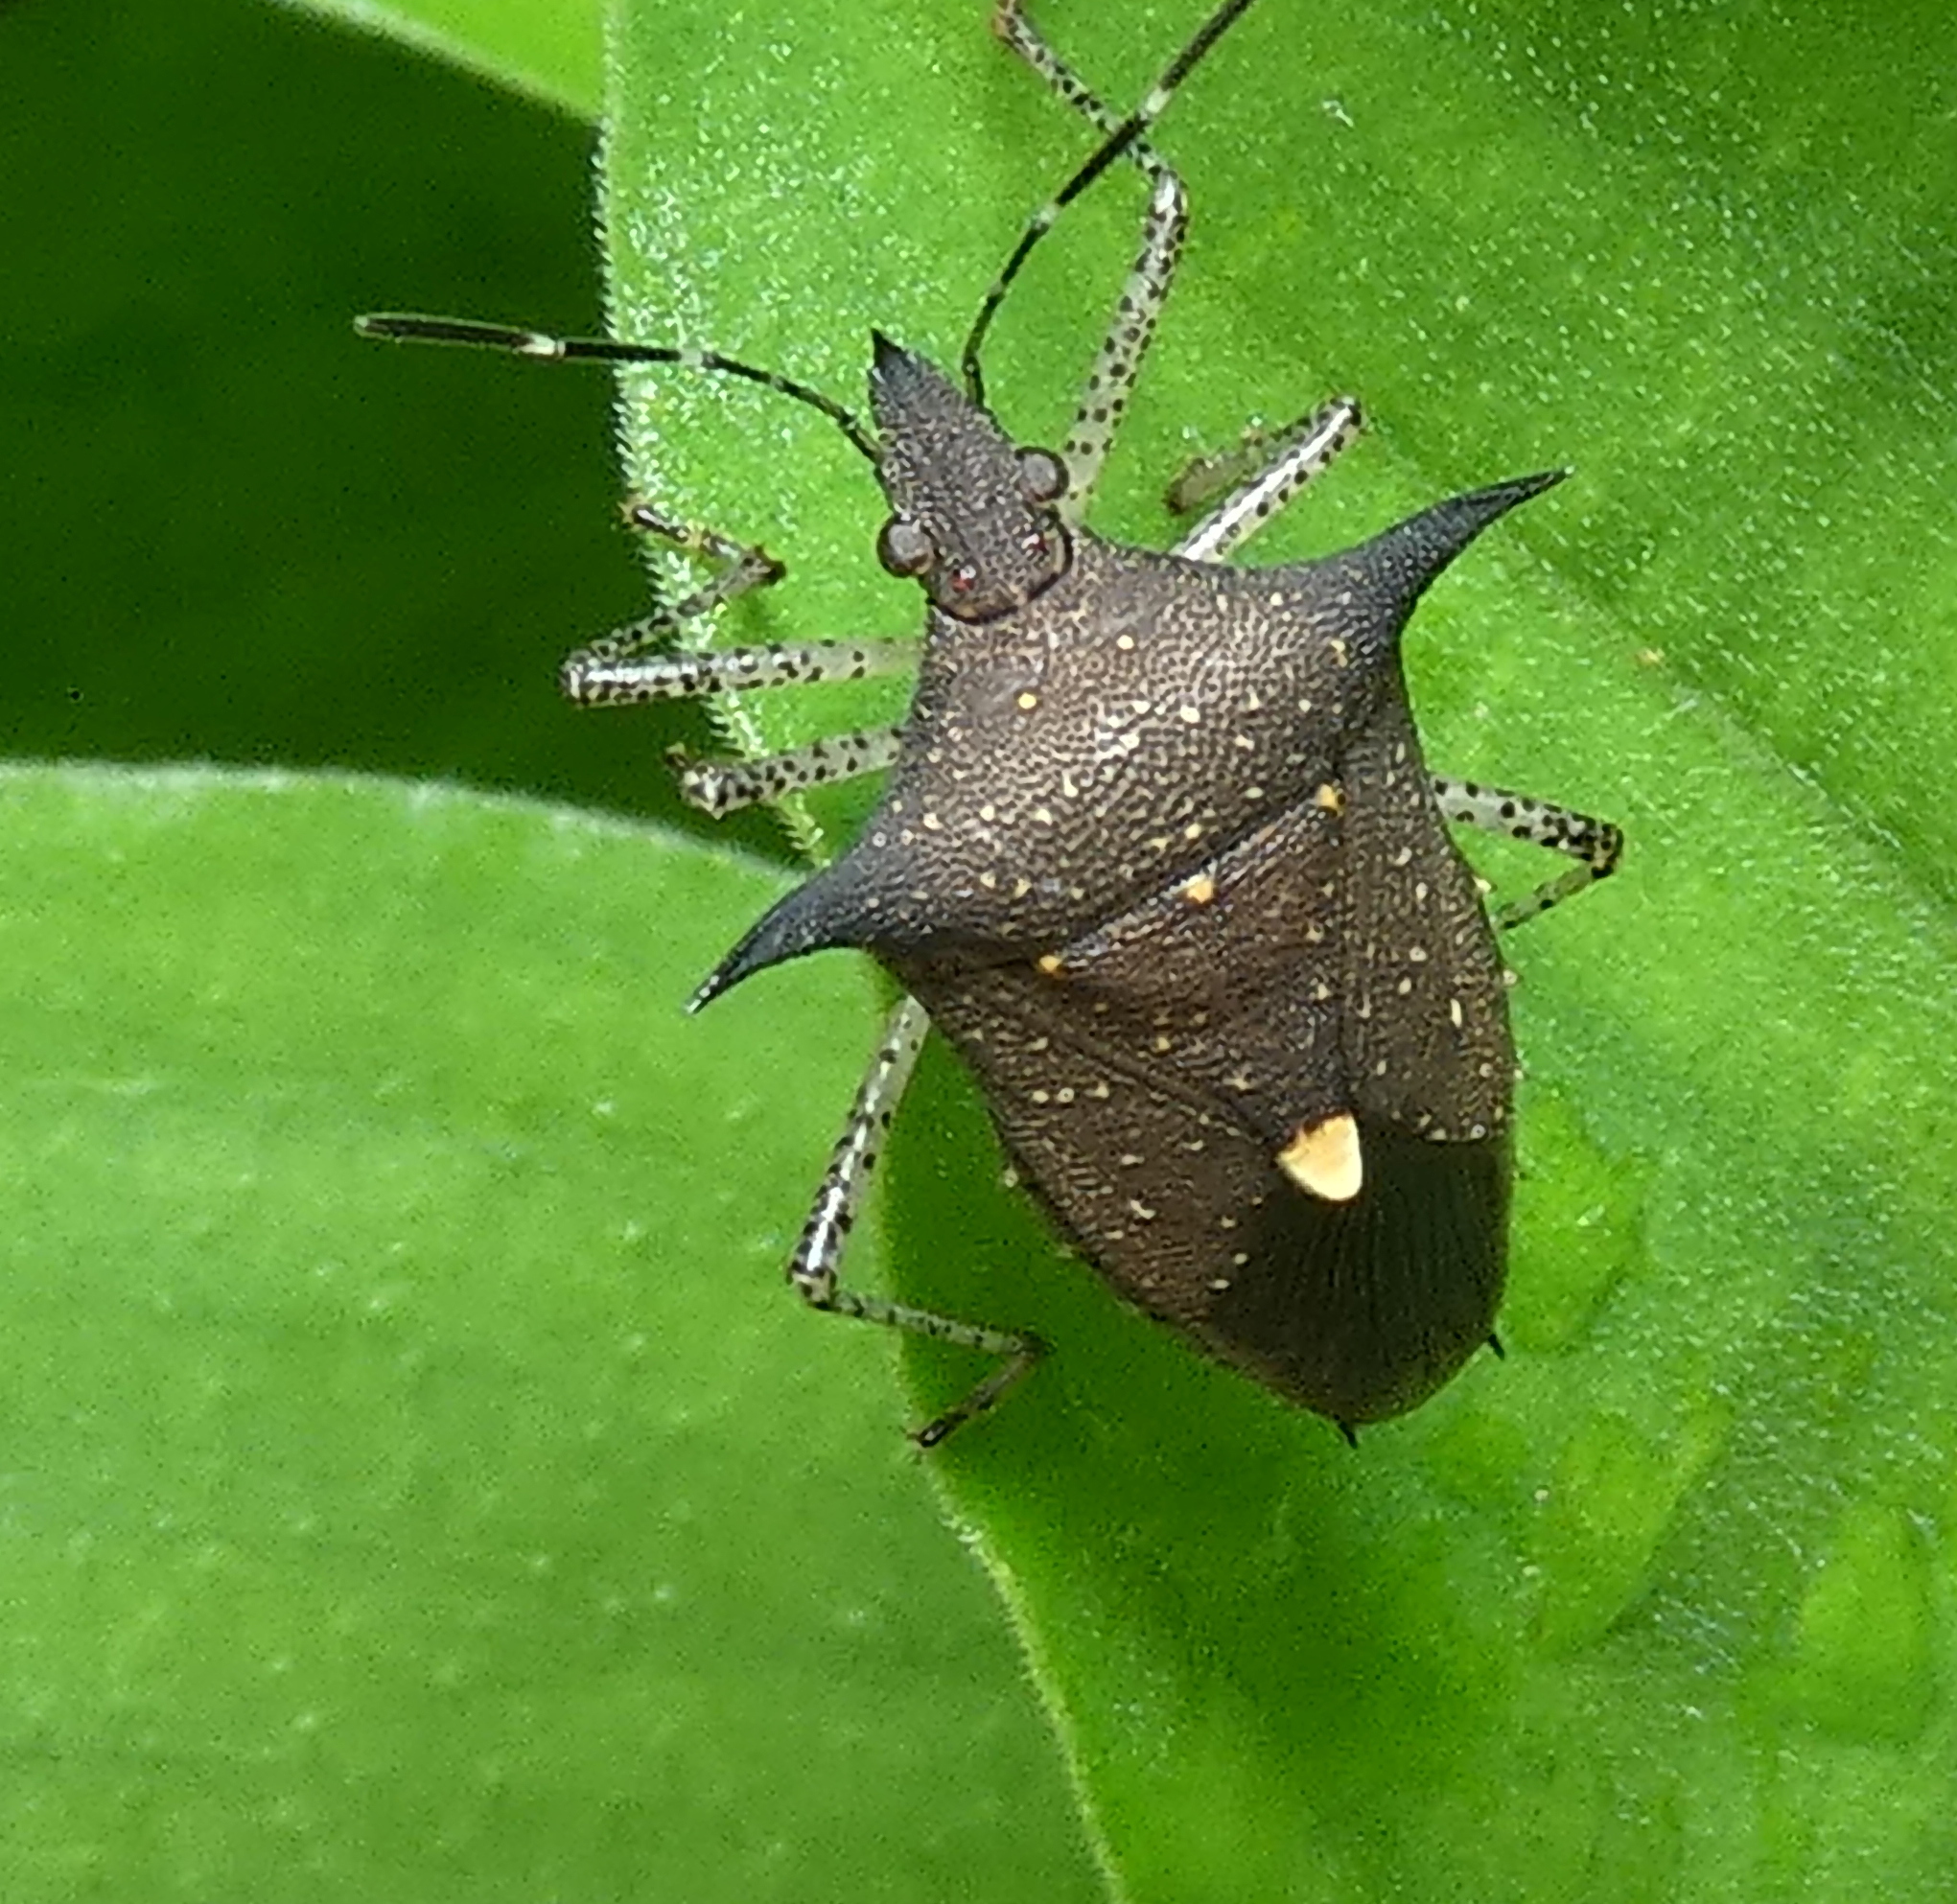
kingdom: Animalia
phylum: Arthropoda
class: Insecta
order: Hemiptera
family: Pentatomidae
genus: Proxys
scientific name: Proxys albopunctulatus
